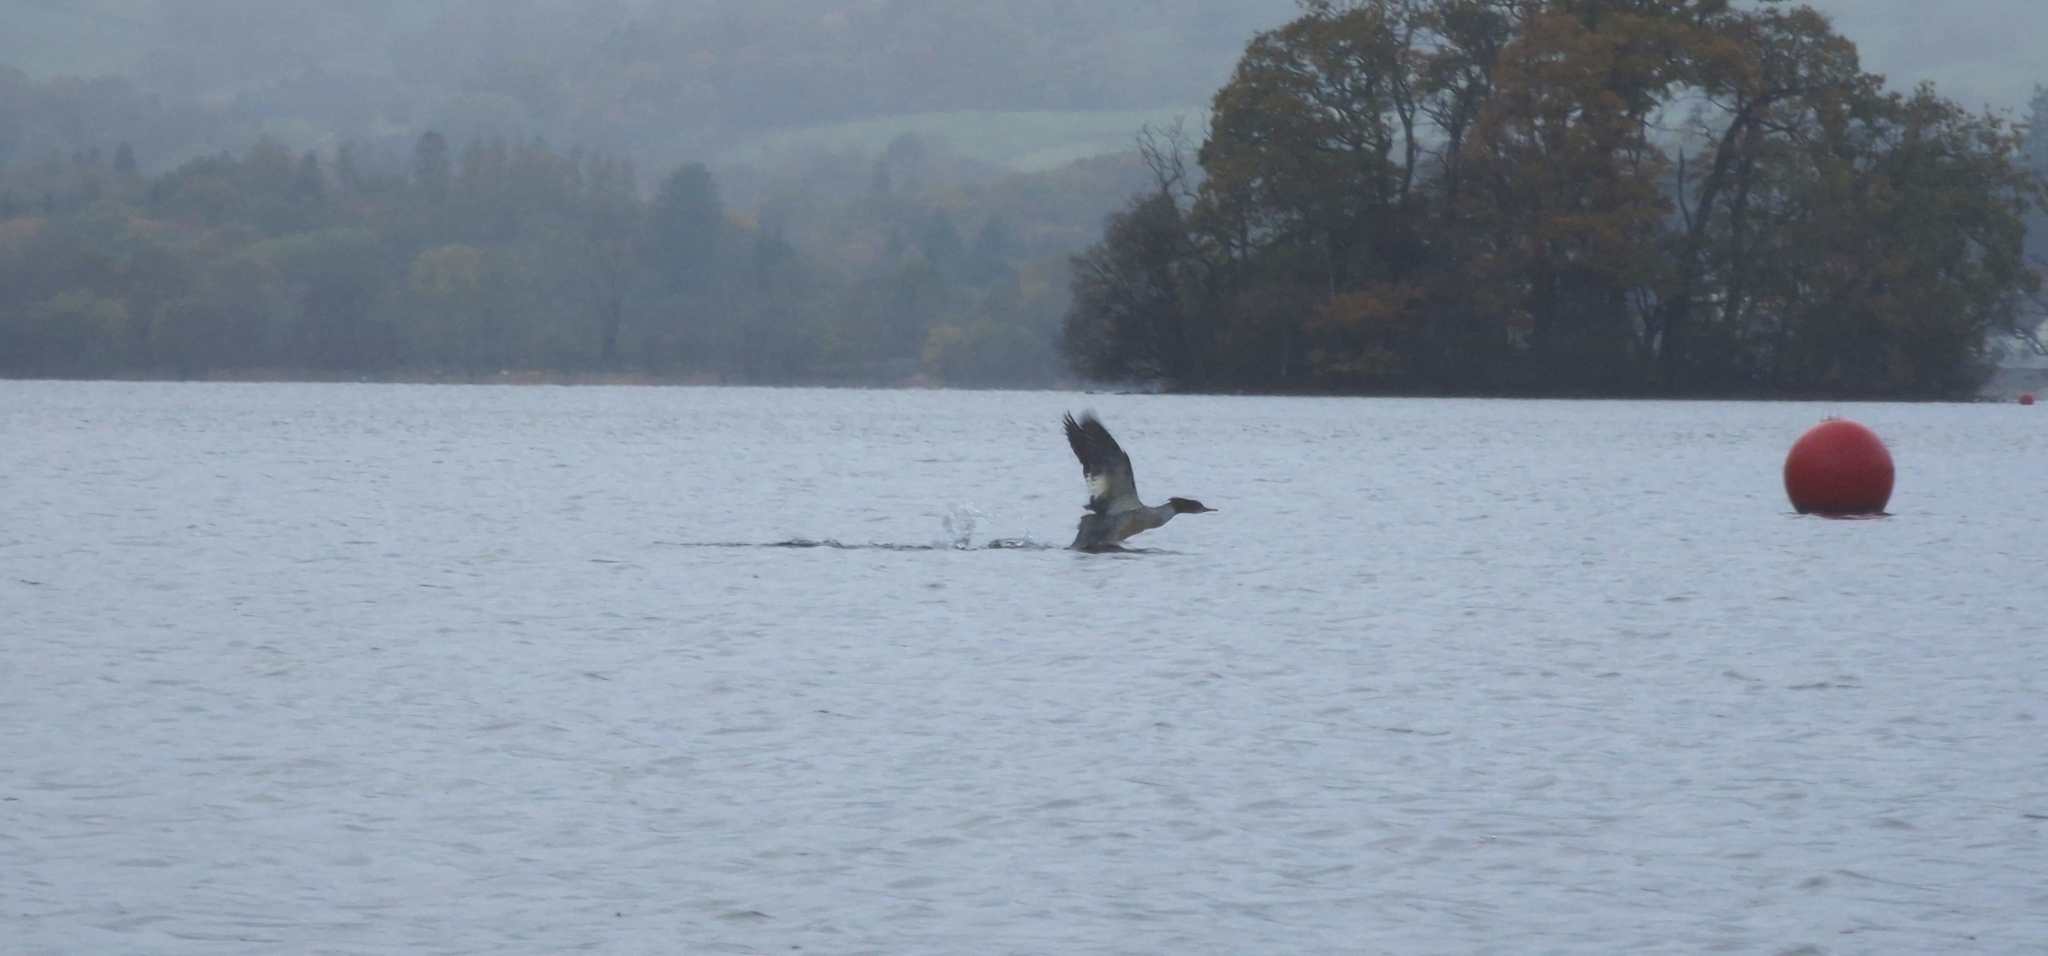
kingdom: Animalia
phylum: Chordata
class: Aves
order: Anseriformes
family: Anatidae
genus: Mergus
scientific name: Mergus merganser
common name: Common merganser
